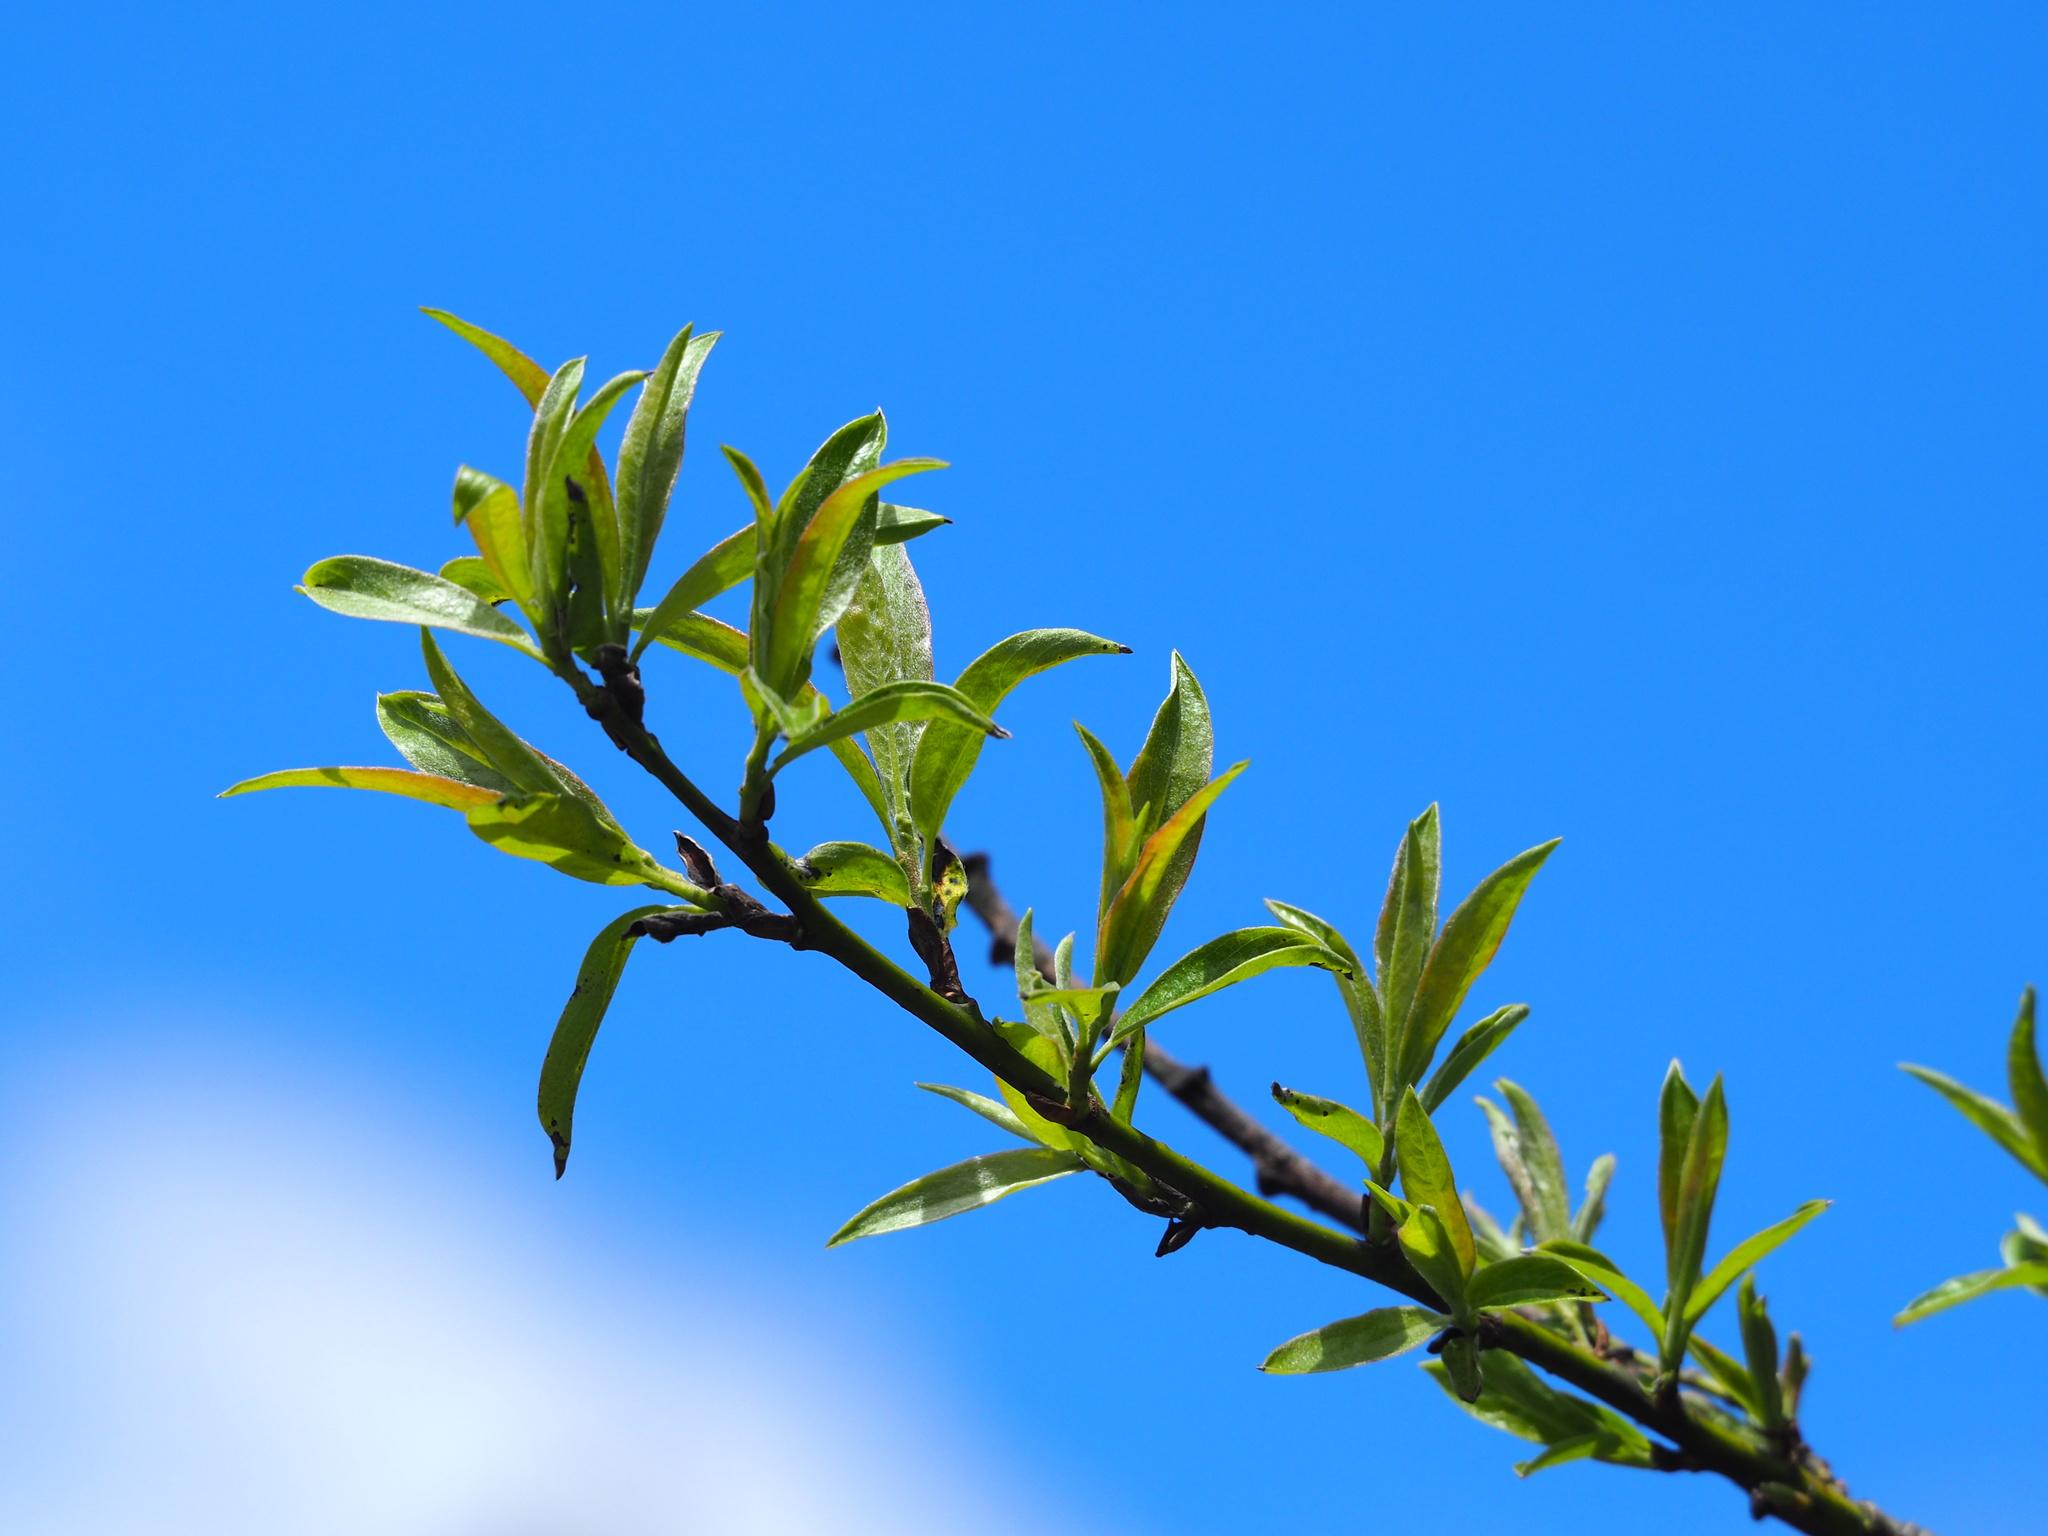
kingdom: Plantae
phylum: Tracheophyta
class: Magnoliopsida
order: Malpighiales
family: Salicaceae
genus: Salix
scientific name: Salix fulvopubescens
